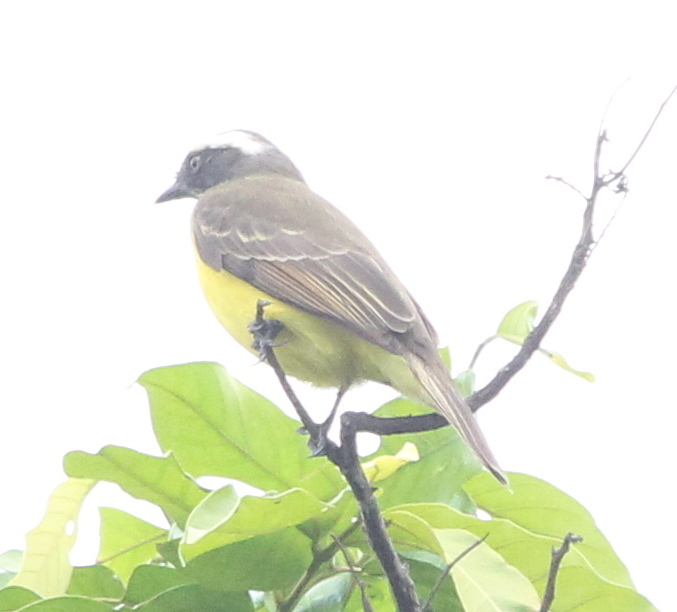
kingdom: Animalia
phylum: Chordata
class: Aves
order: Passeriformes
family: Tyrannidae
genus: Myiozetetes
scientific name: Myiozetetes similis
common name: Social flycatcher
